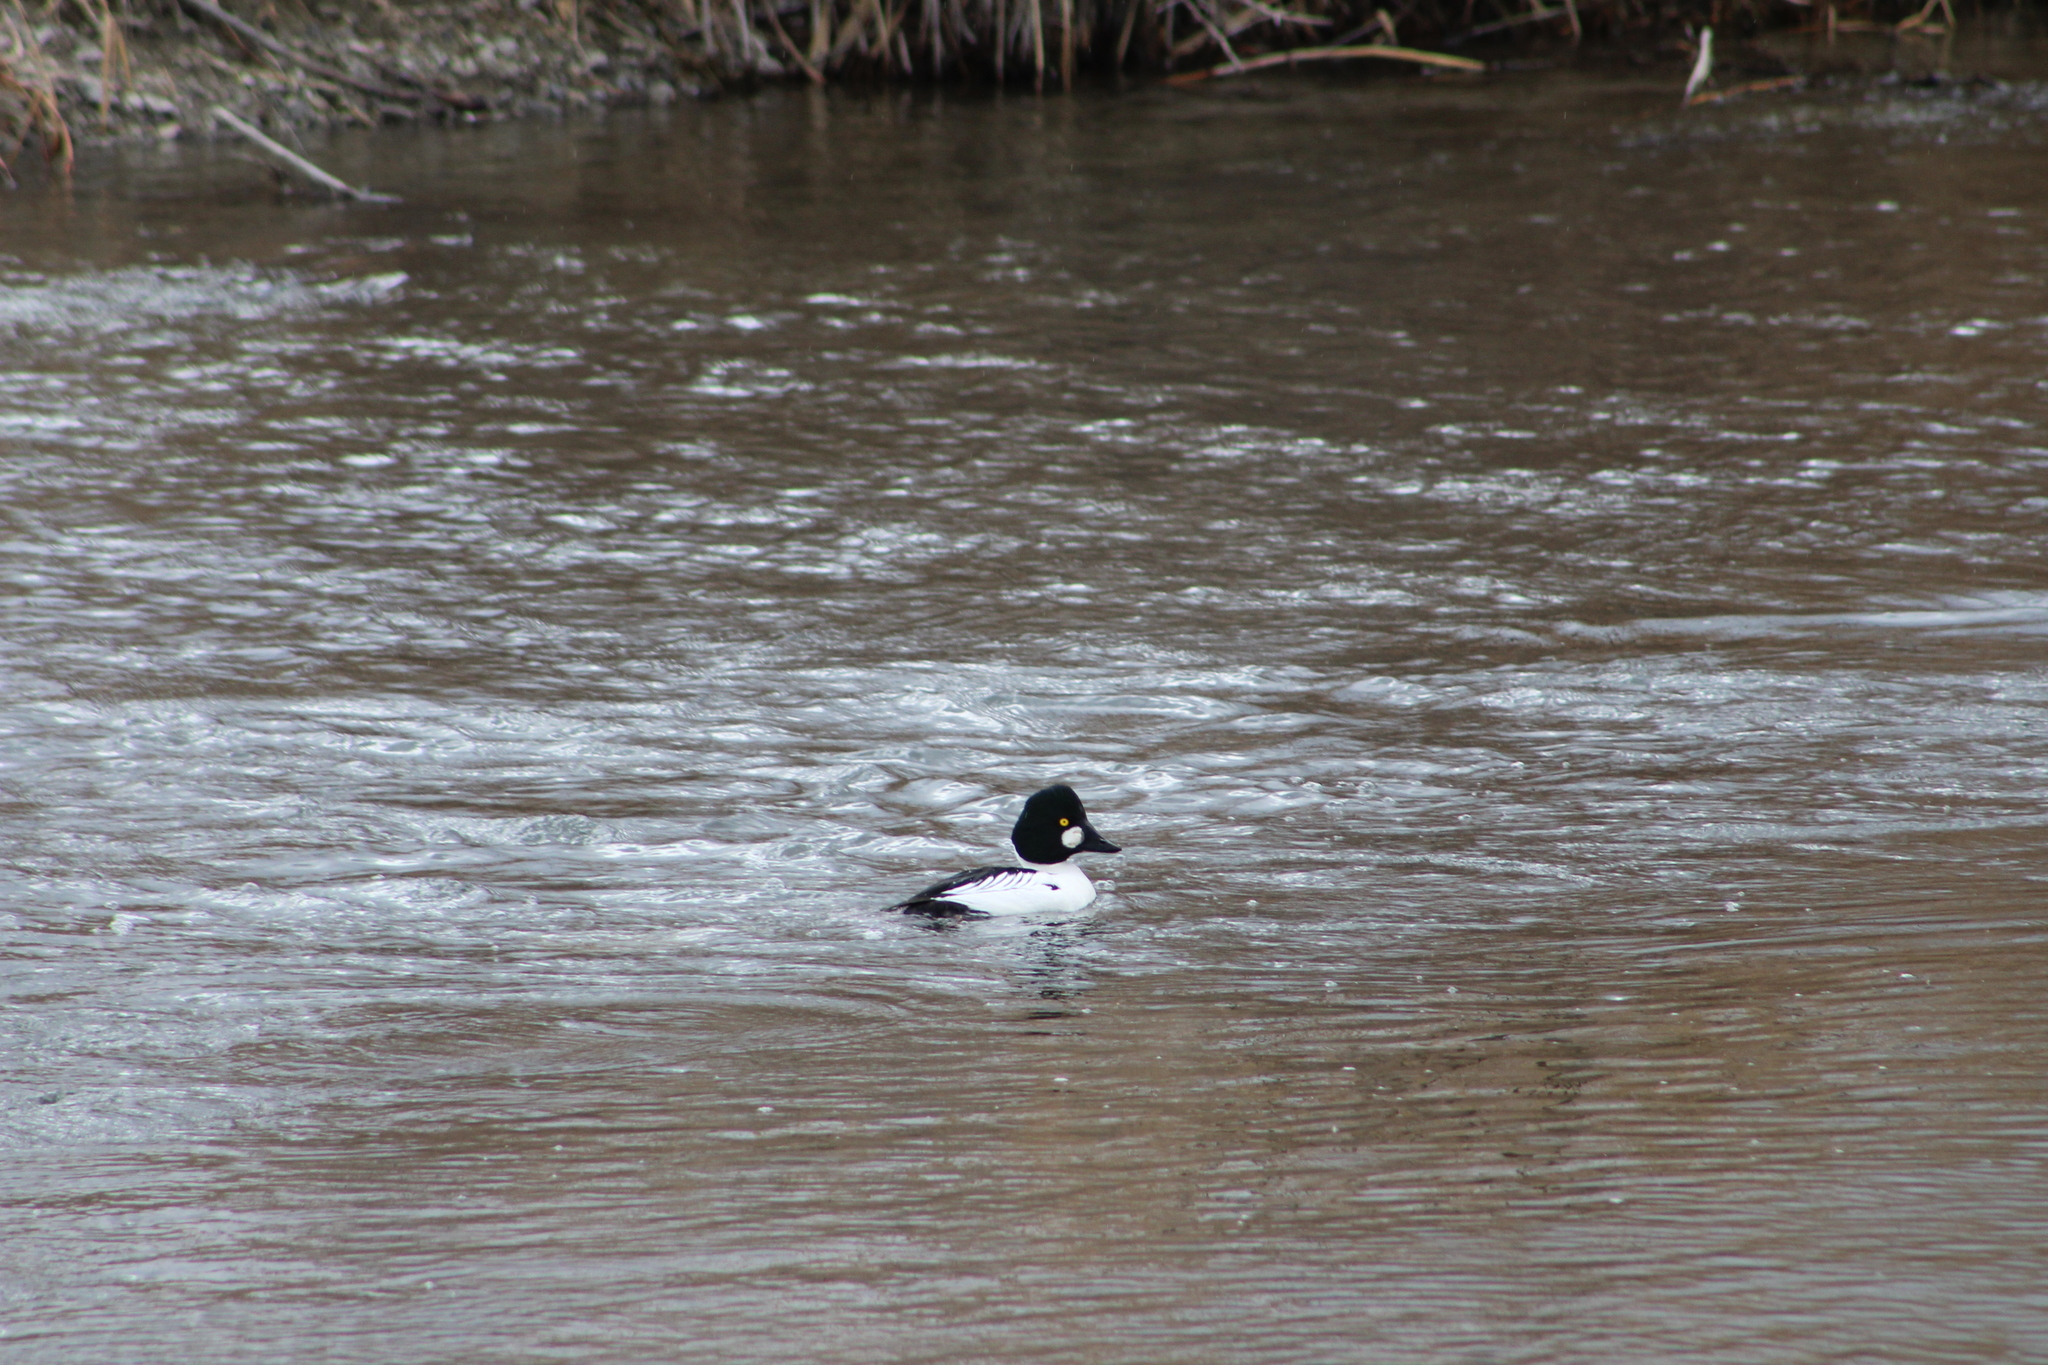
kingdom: Animalia
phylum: Chordata
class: Aves
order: Anseriformes
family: Anatidae
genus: Bucephala
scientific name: Bucephala clangula
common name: Common goldeneye
